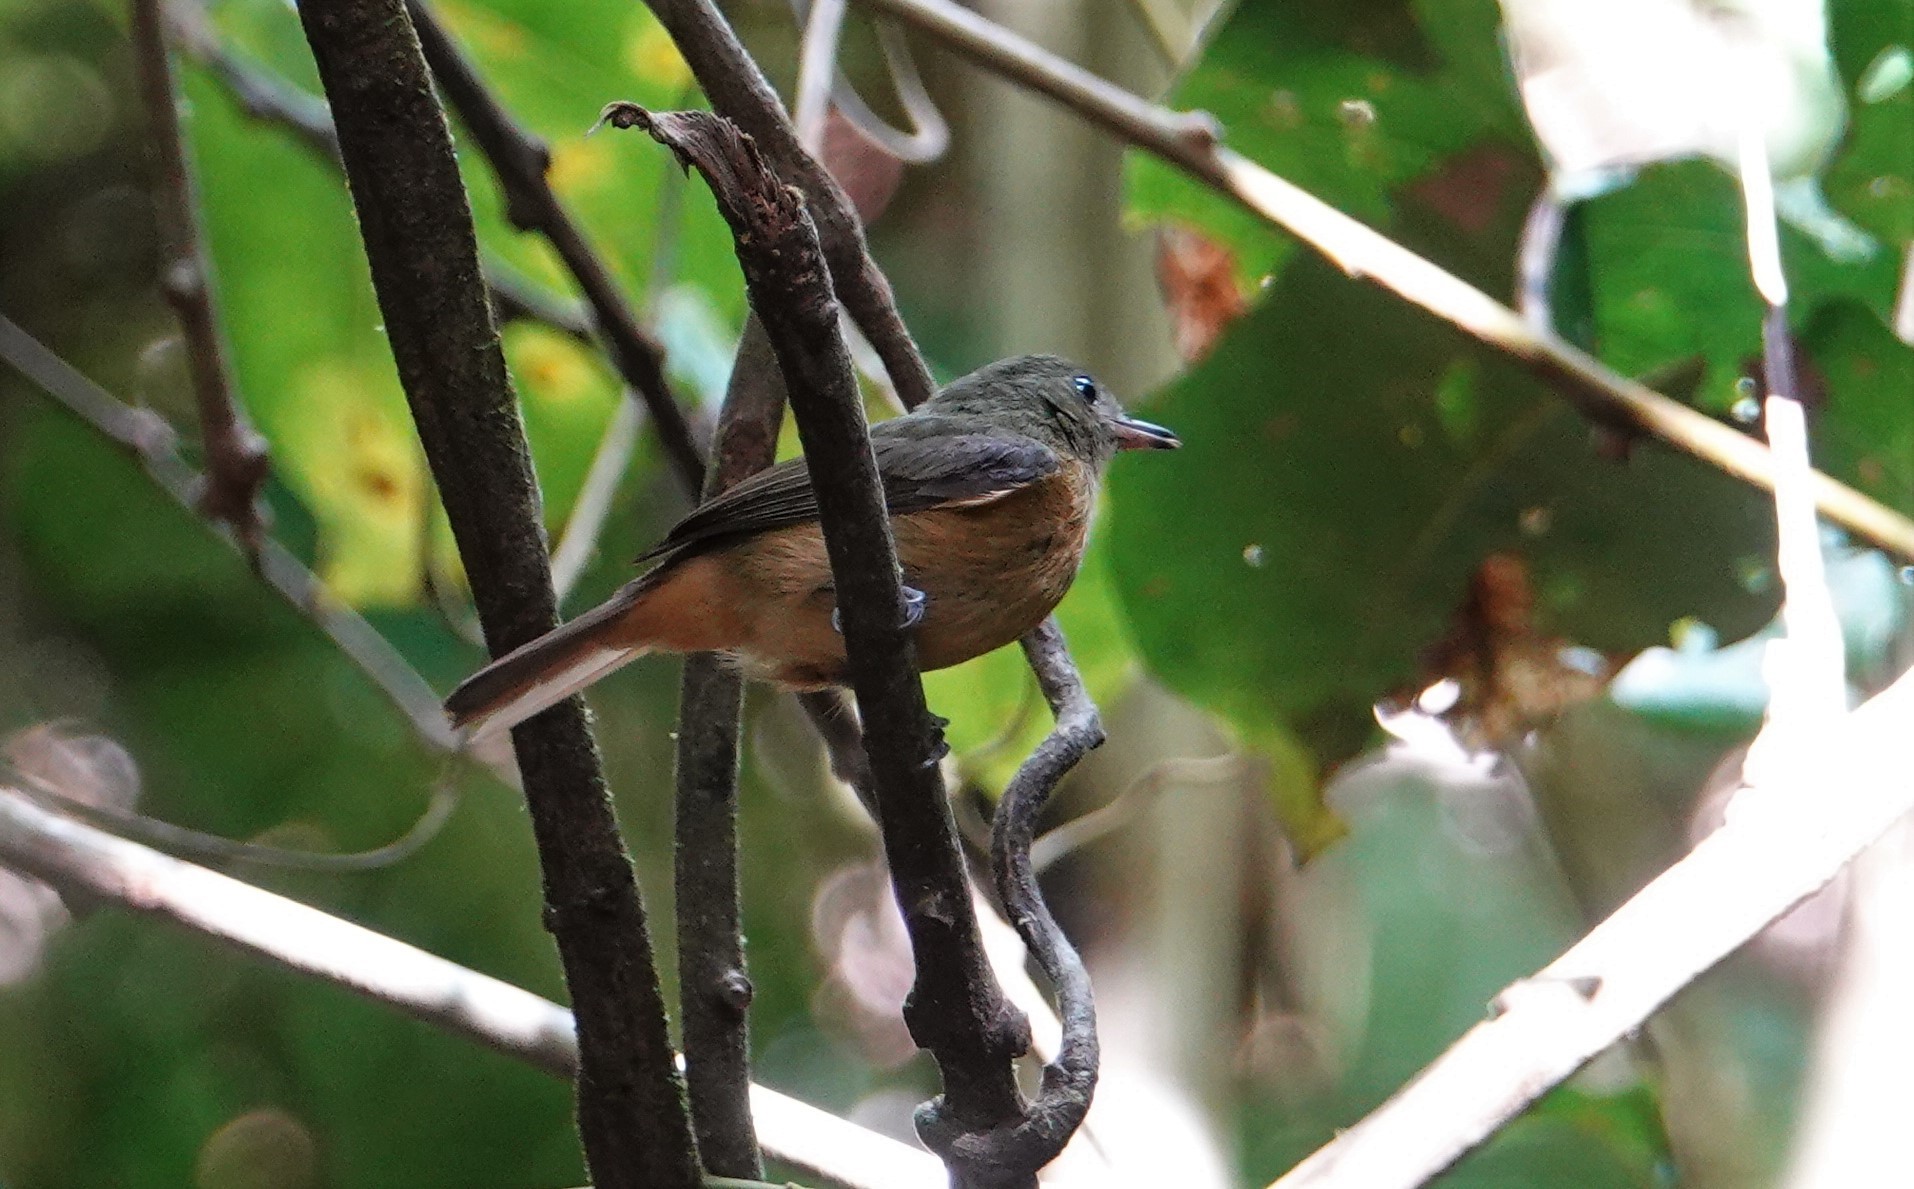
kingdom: Animalia
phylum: Chordata
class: Aves
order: Passeriformes
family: Tyrannidae
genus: Mionectes
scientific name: Mionectes macconnelli
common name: Mcconnell's flycatcher
